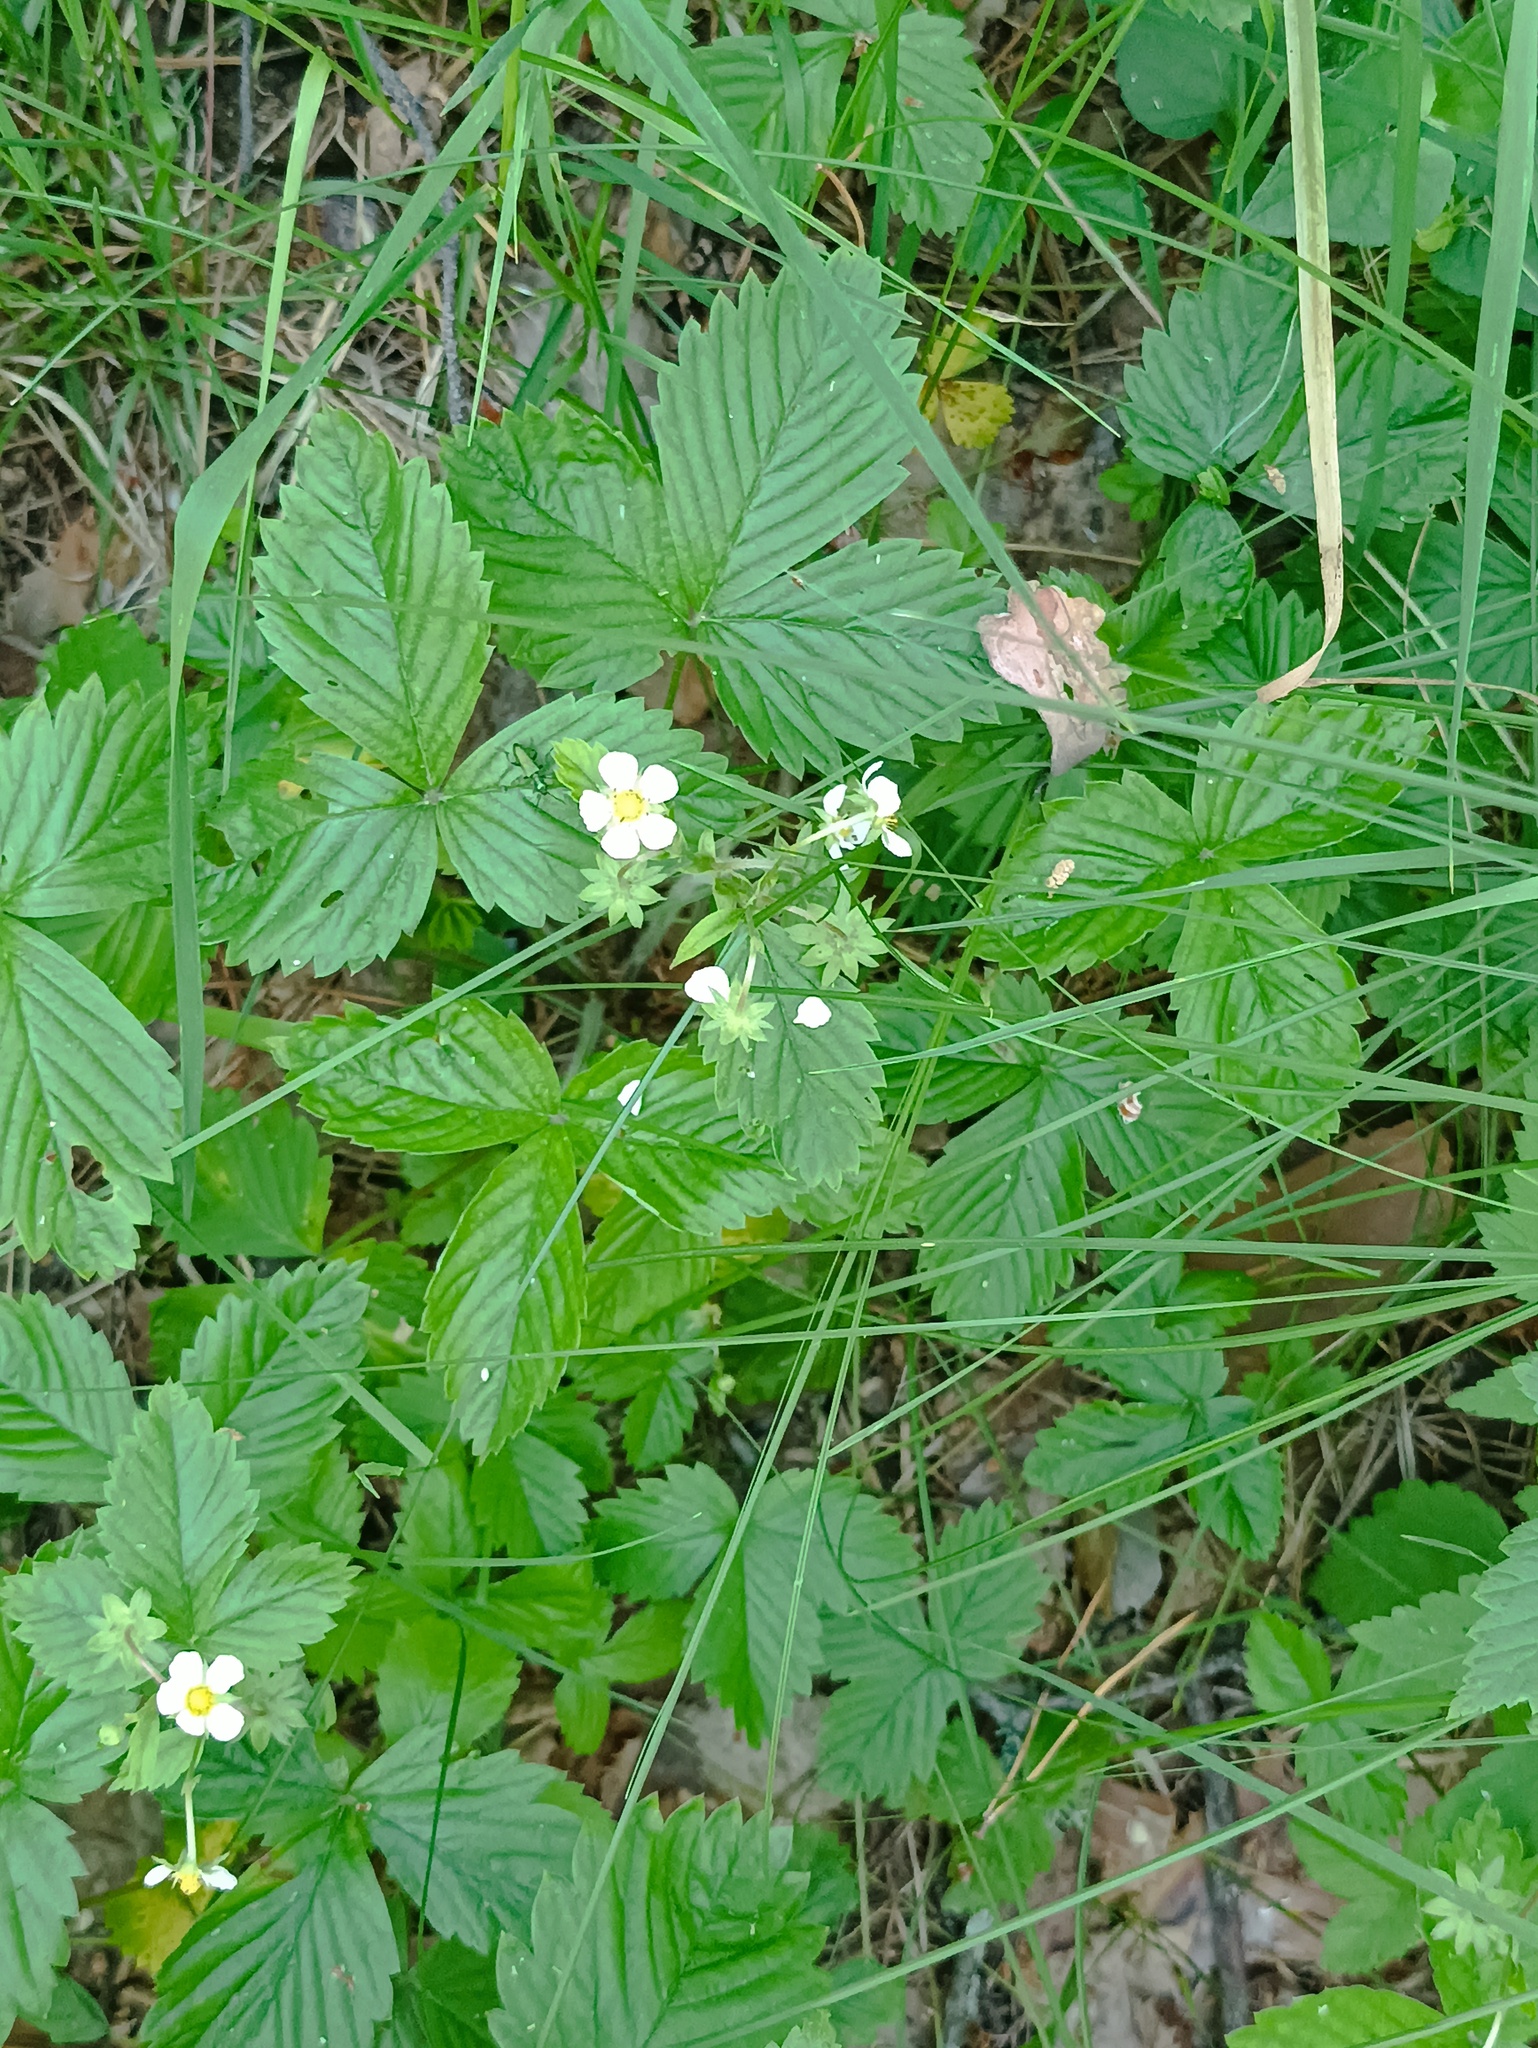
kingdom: Plantae
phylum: Tracheophyta
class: Magnoliopsida
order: Rosales
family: Rosaceae
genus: Fragaria
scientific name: Fragaria vesca
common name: Wild strawberry
